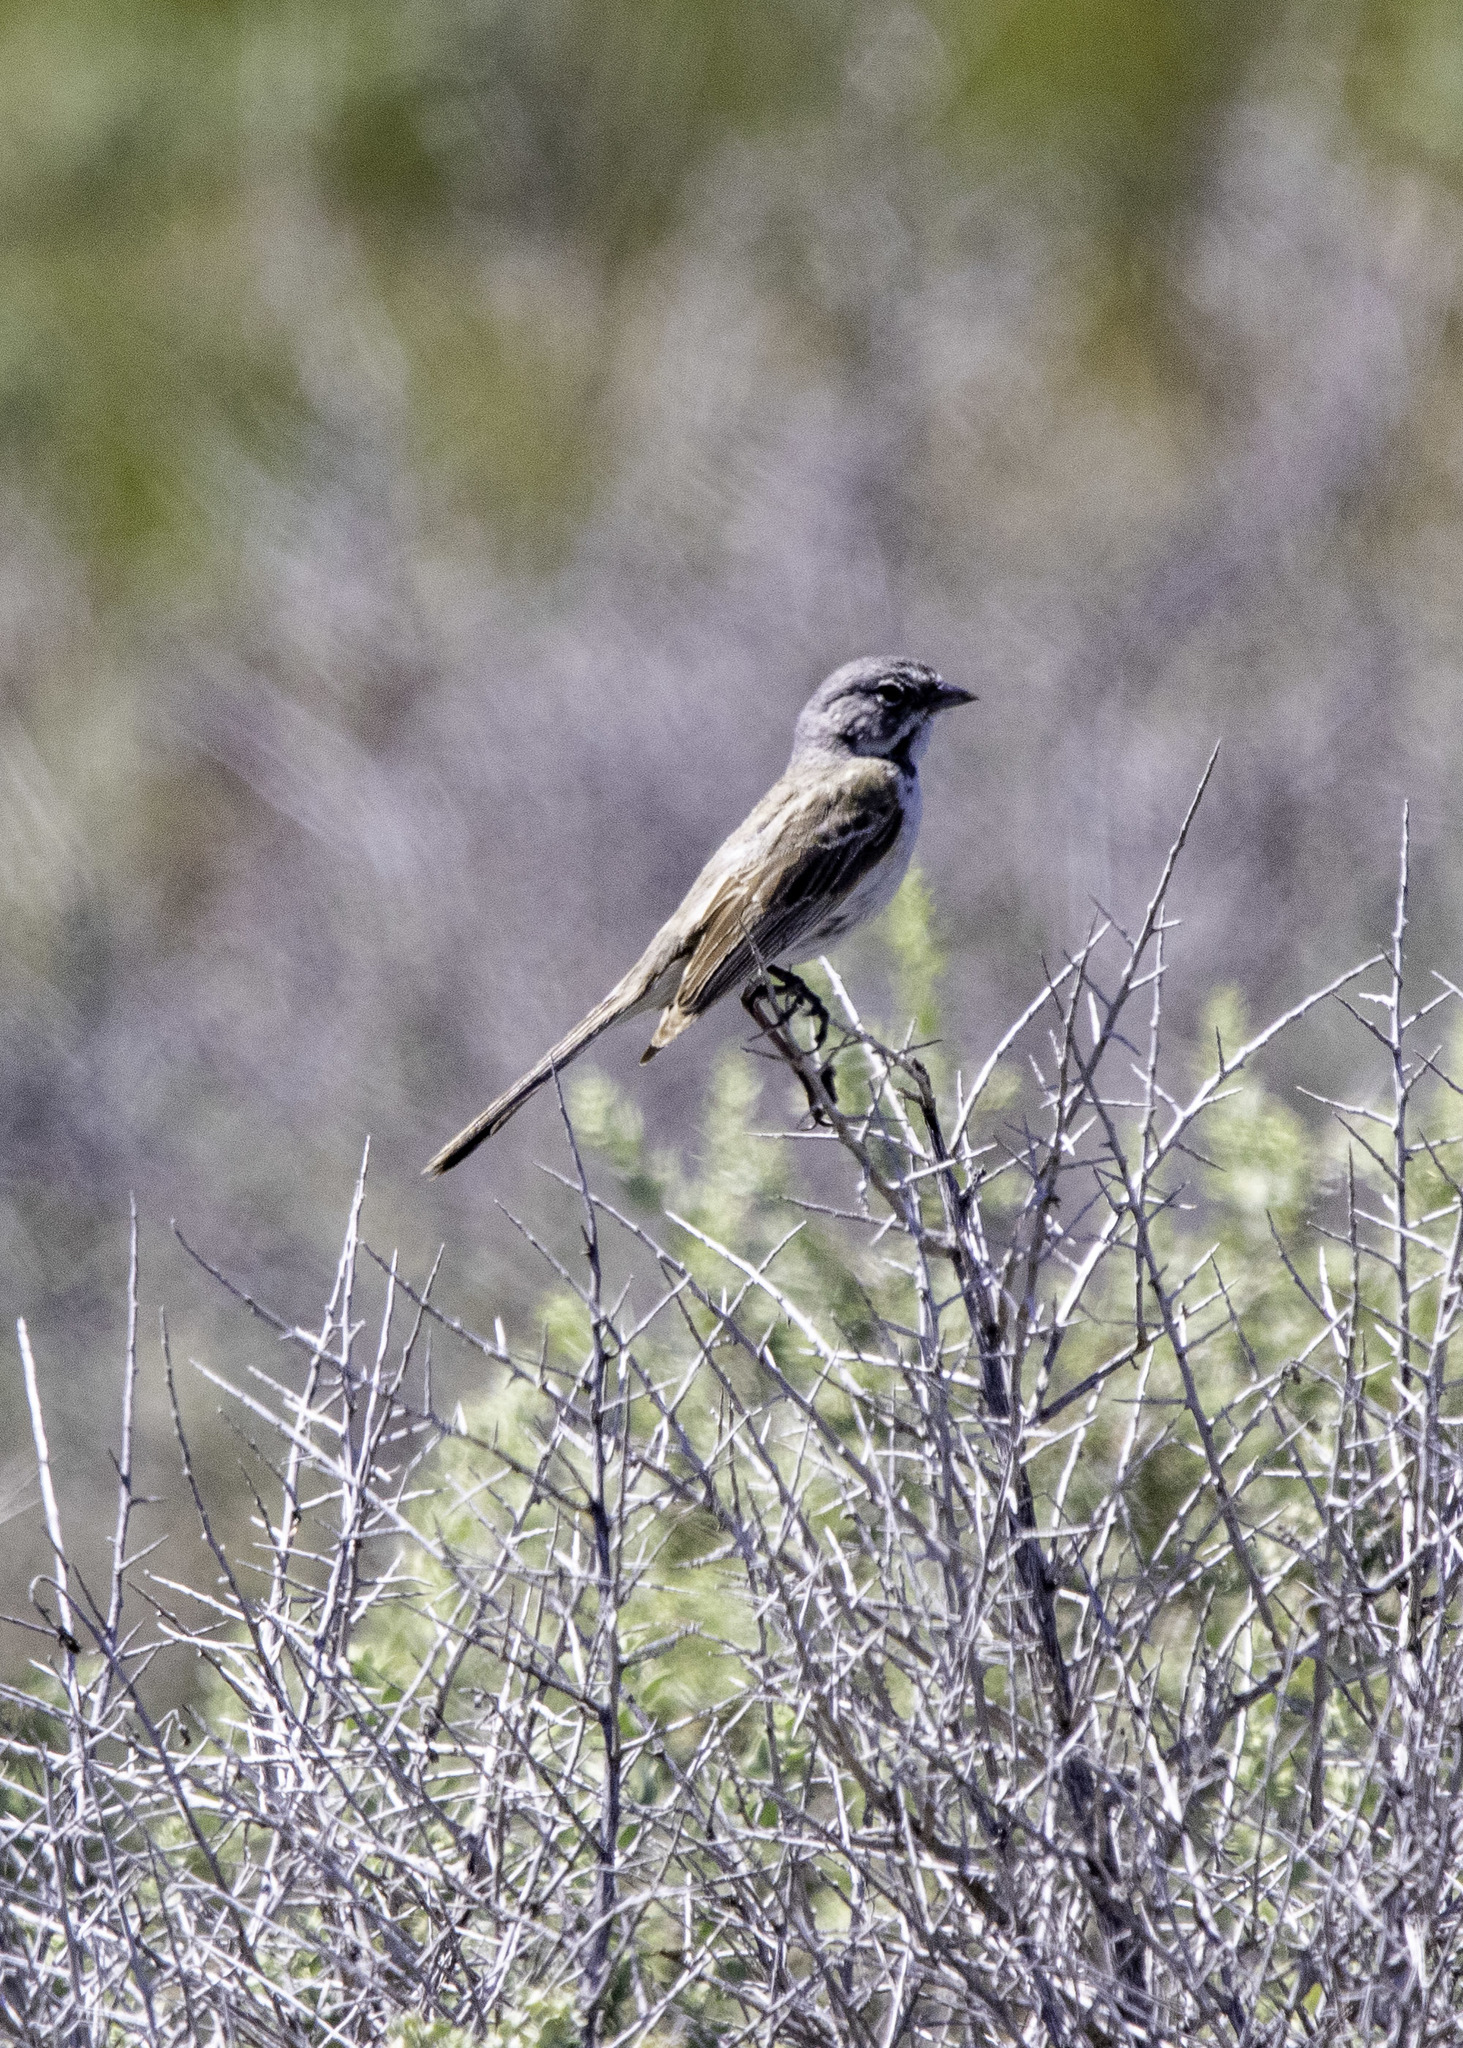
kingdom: Animalia
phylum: Chordata
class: Aves
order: Passeriformes
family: Passerellidae
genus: Artemisiospiza
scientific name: Artemisiospiza belli
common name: Bell's sparrow
